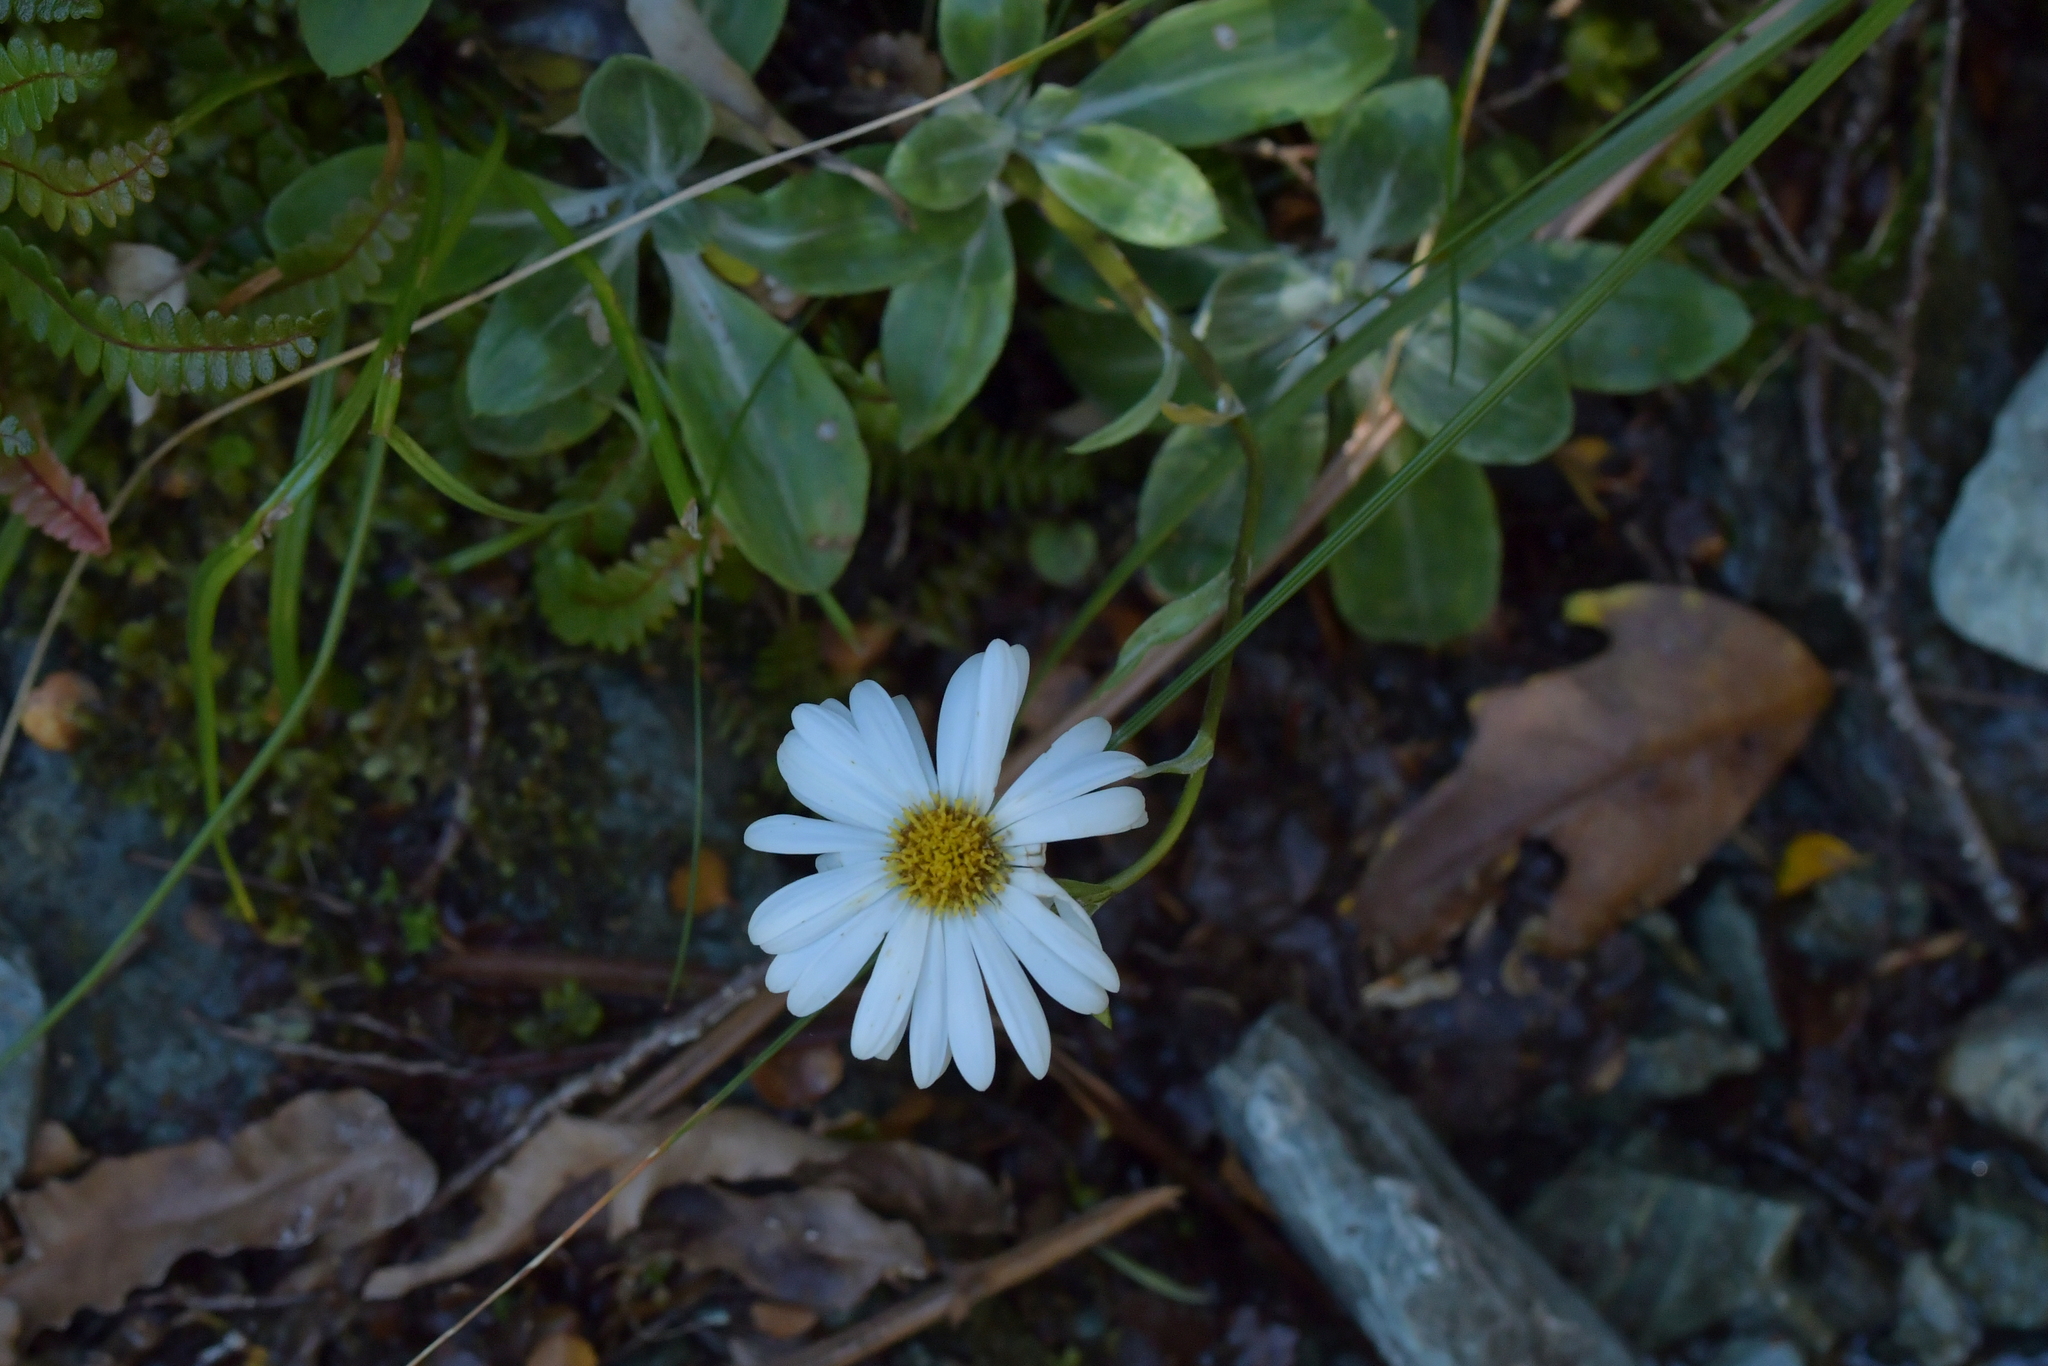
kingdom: Plantae
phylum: Tracheophyta
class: Magnoliopsida
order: Asterales
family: Asteraceae
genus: Celmisia
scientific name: Celmisia durietzii
